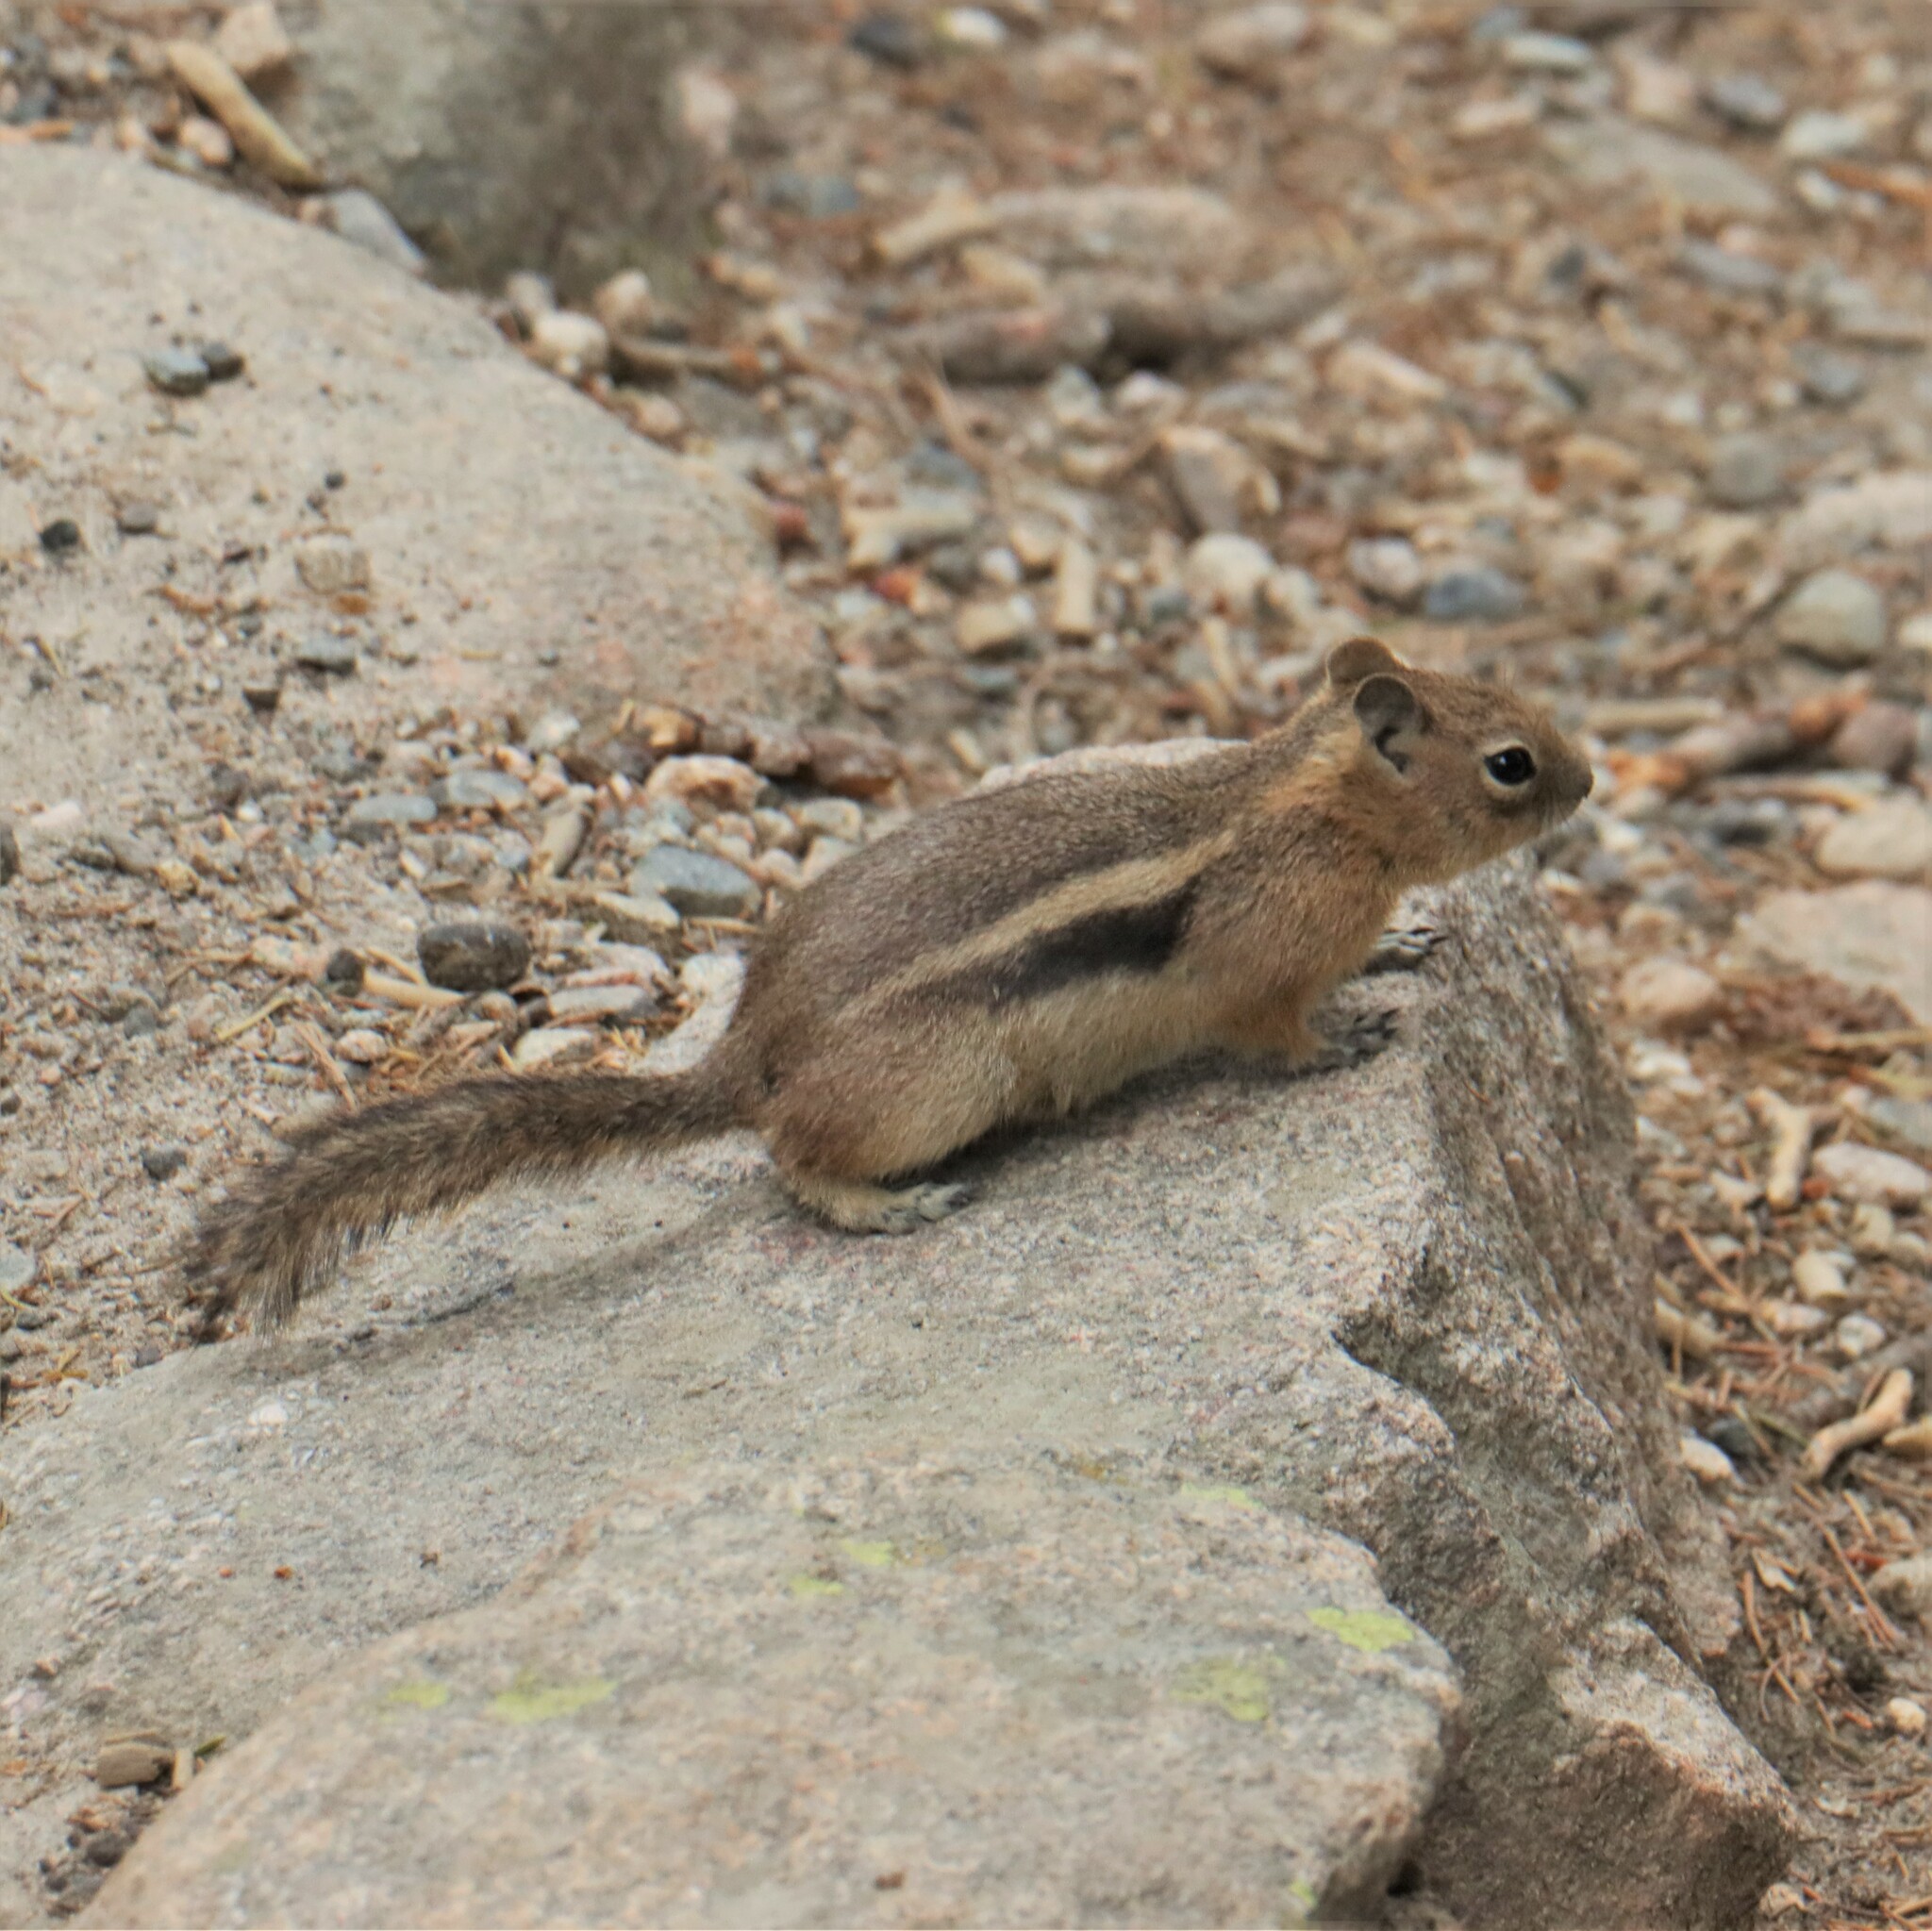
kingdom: Animalia
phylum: Chordata
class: Mammalia
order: Rodentia
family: Sciuridae
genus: Callospermophilus
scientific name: Callospermophilus lateralis
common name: Golden-mantled ground squirrel
